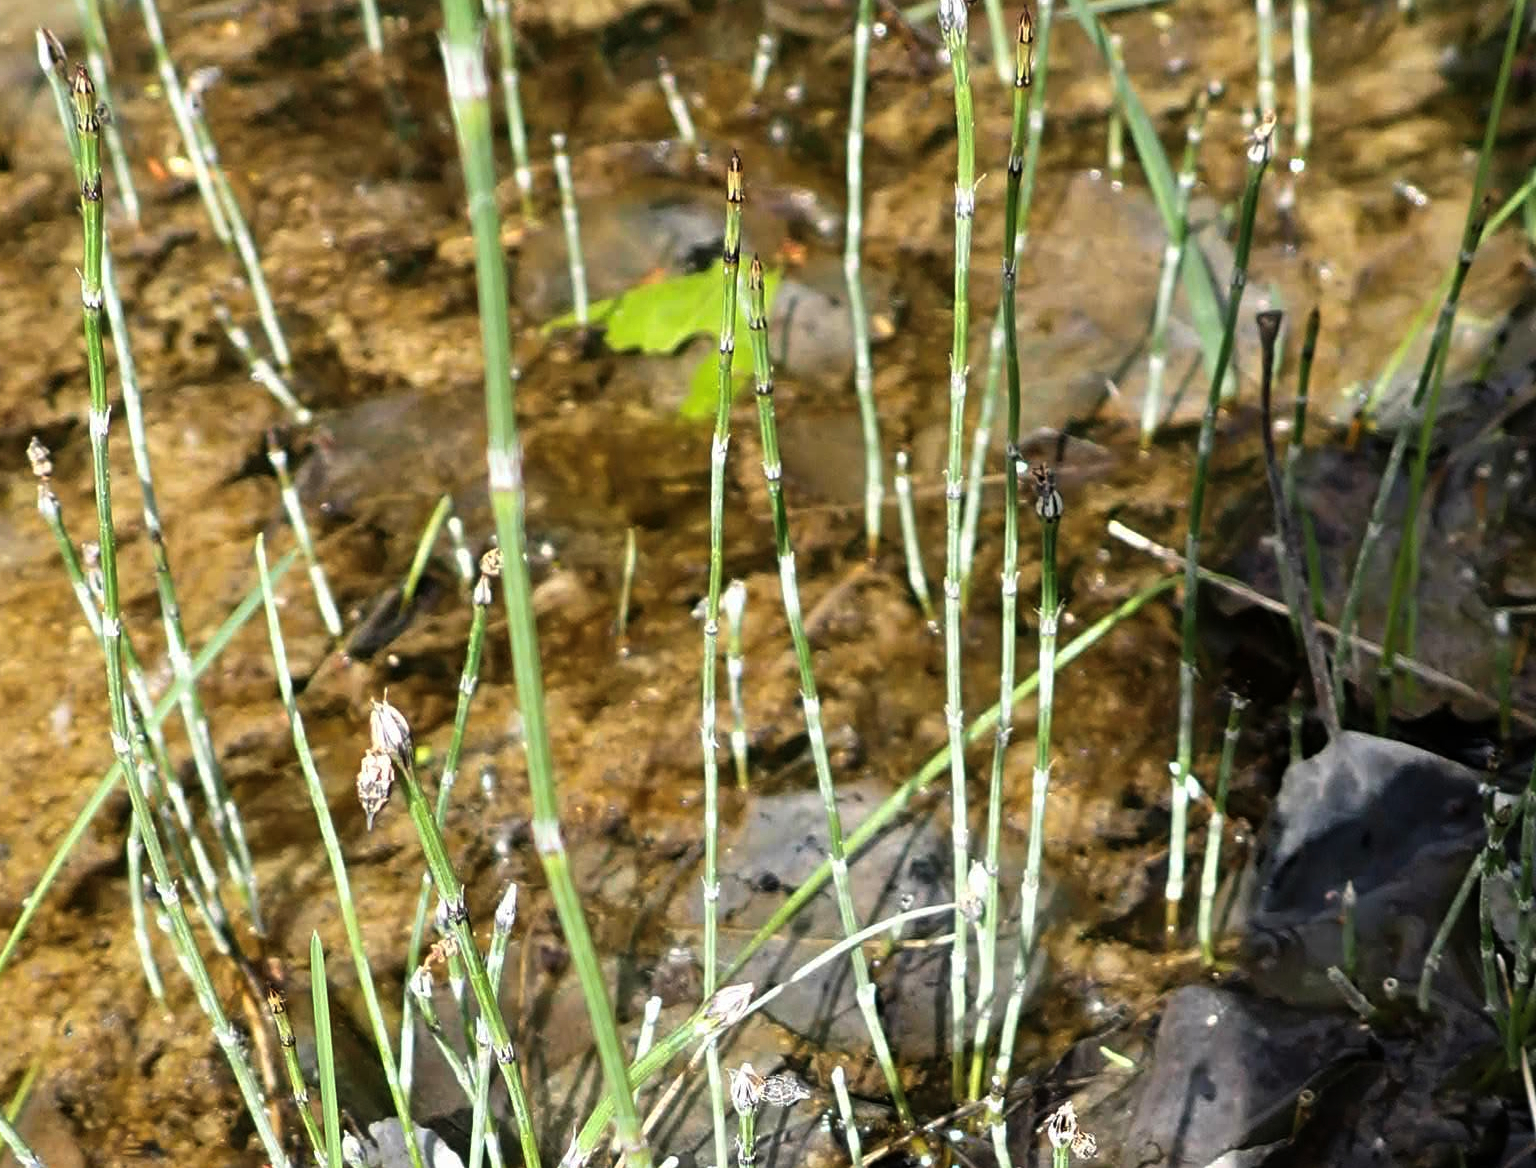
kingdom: Plantae
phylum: Tracheophyta
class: Polypodiopsida
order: Equisetales
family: Equisetaceae
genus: Equisetum
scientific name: Equisetum variegatum
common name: Variegated horsetail
